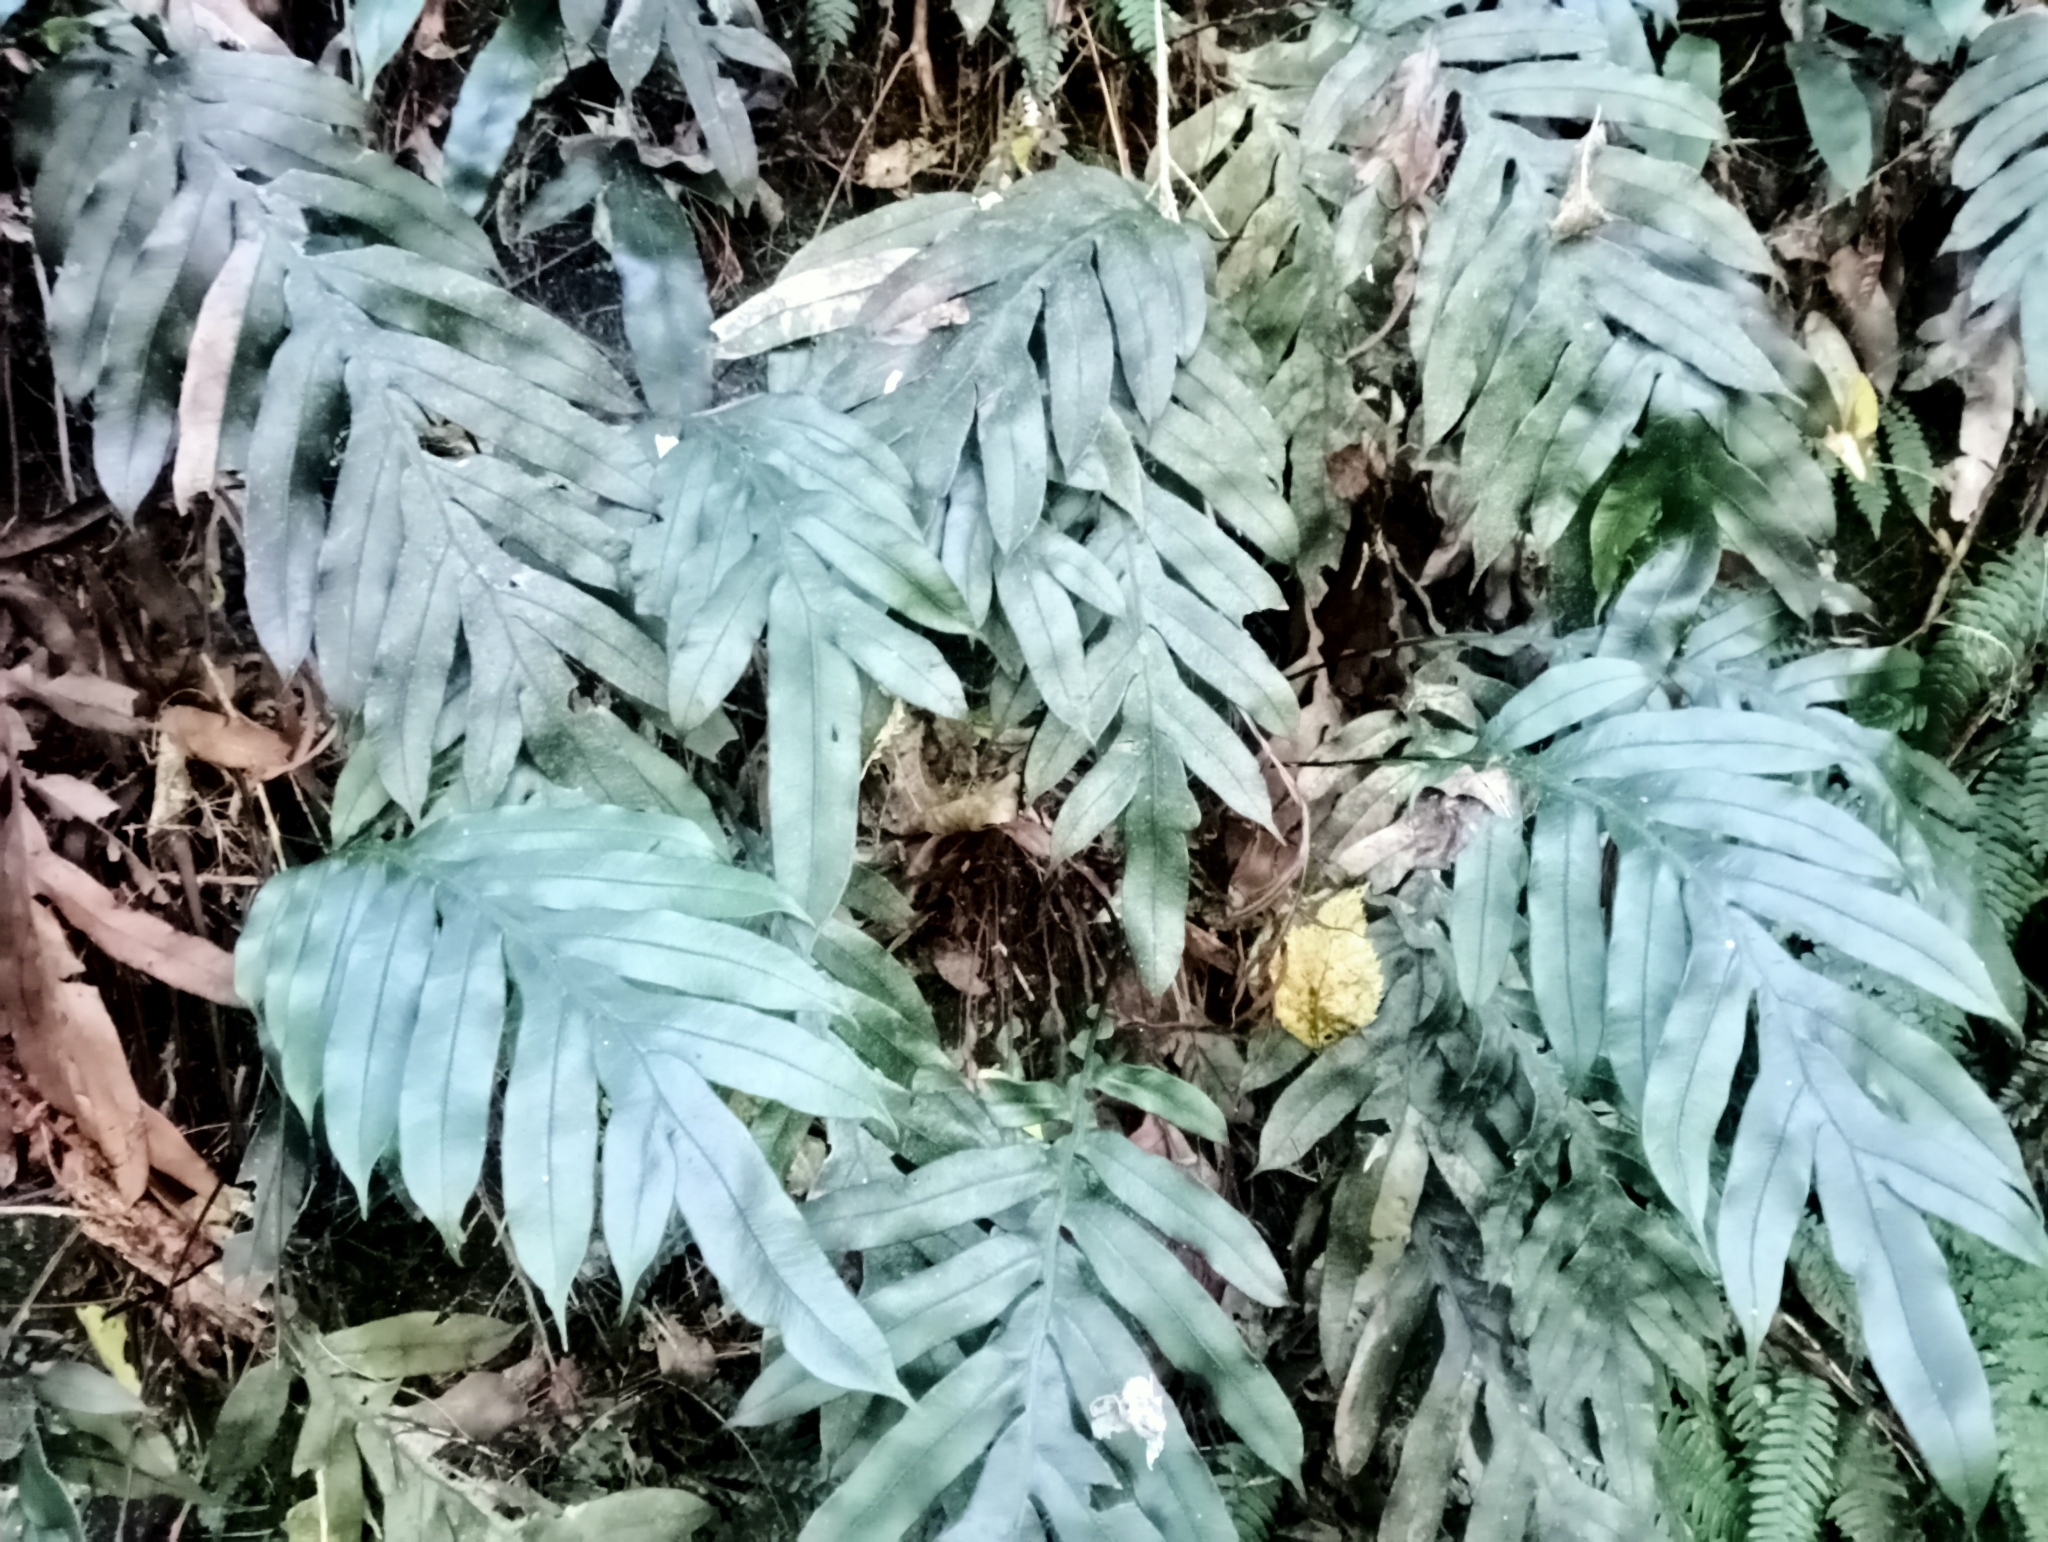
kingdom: Plantae
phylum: Tracheophyta
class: Polypodiopsida
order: Polypodiales
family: Blechnaceae
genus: Austroblechnum
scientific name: Austroblechnum colensoi
